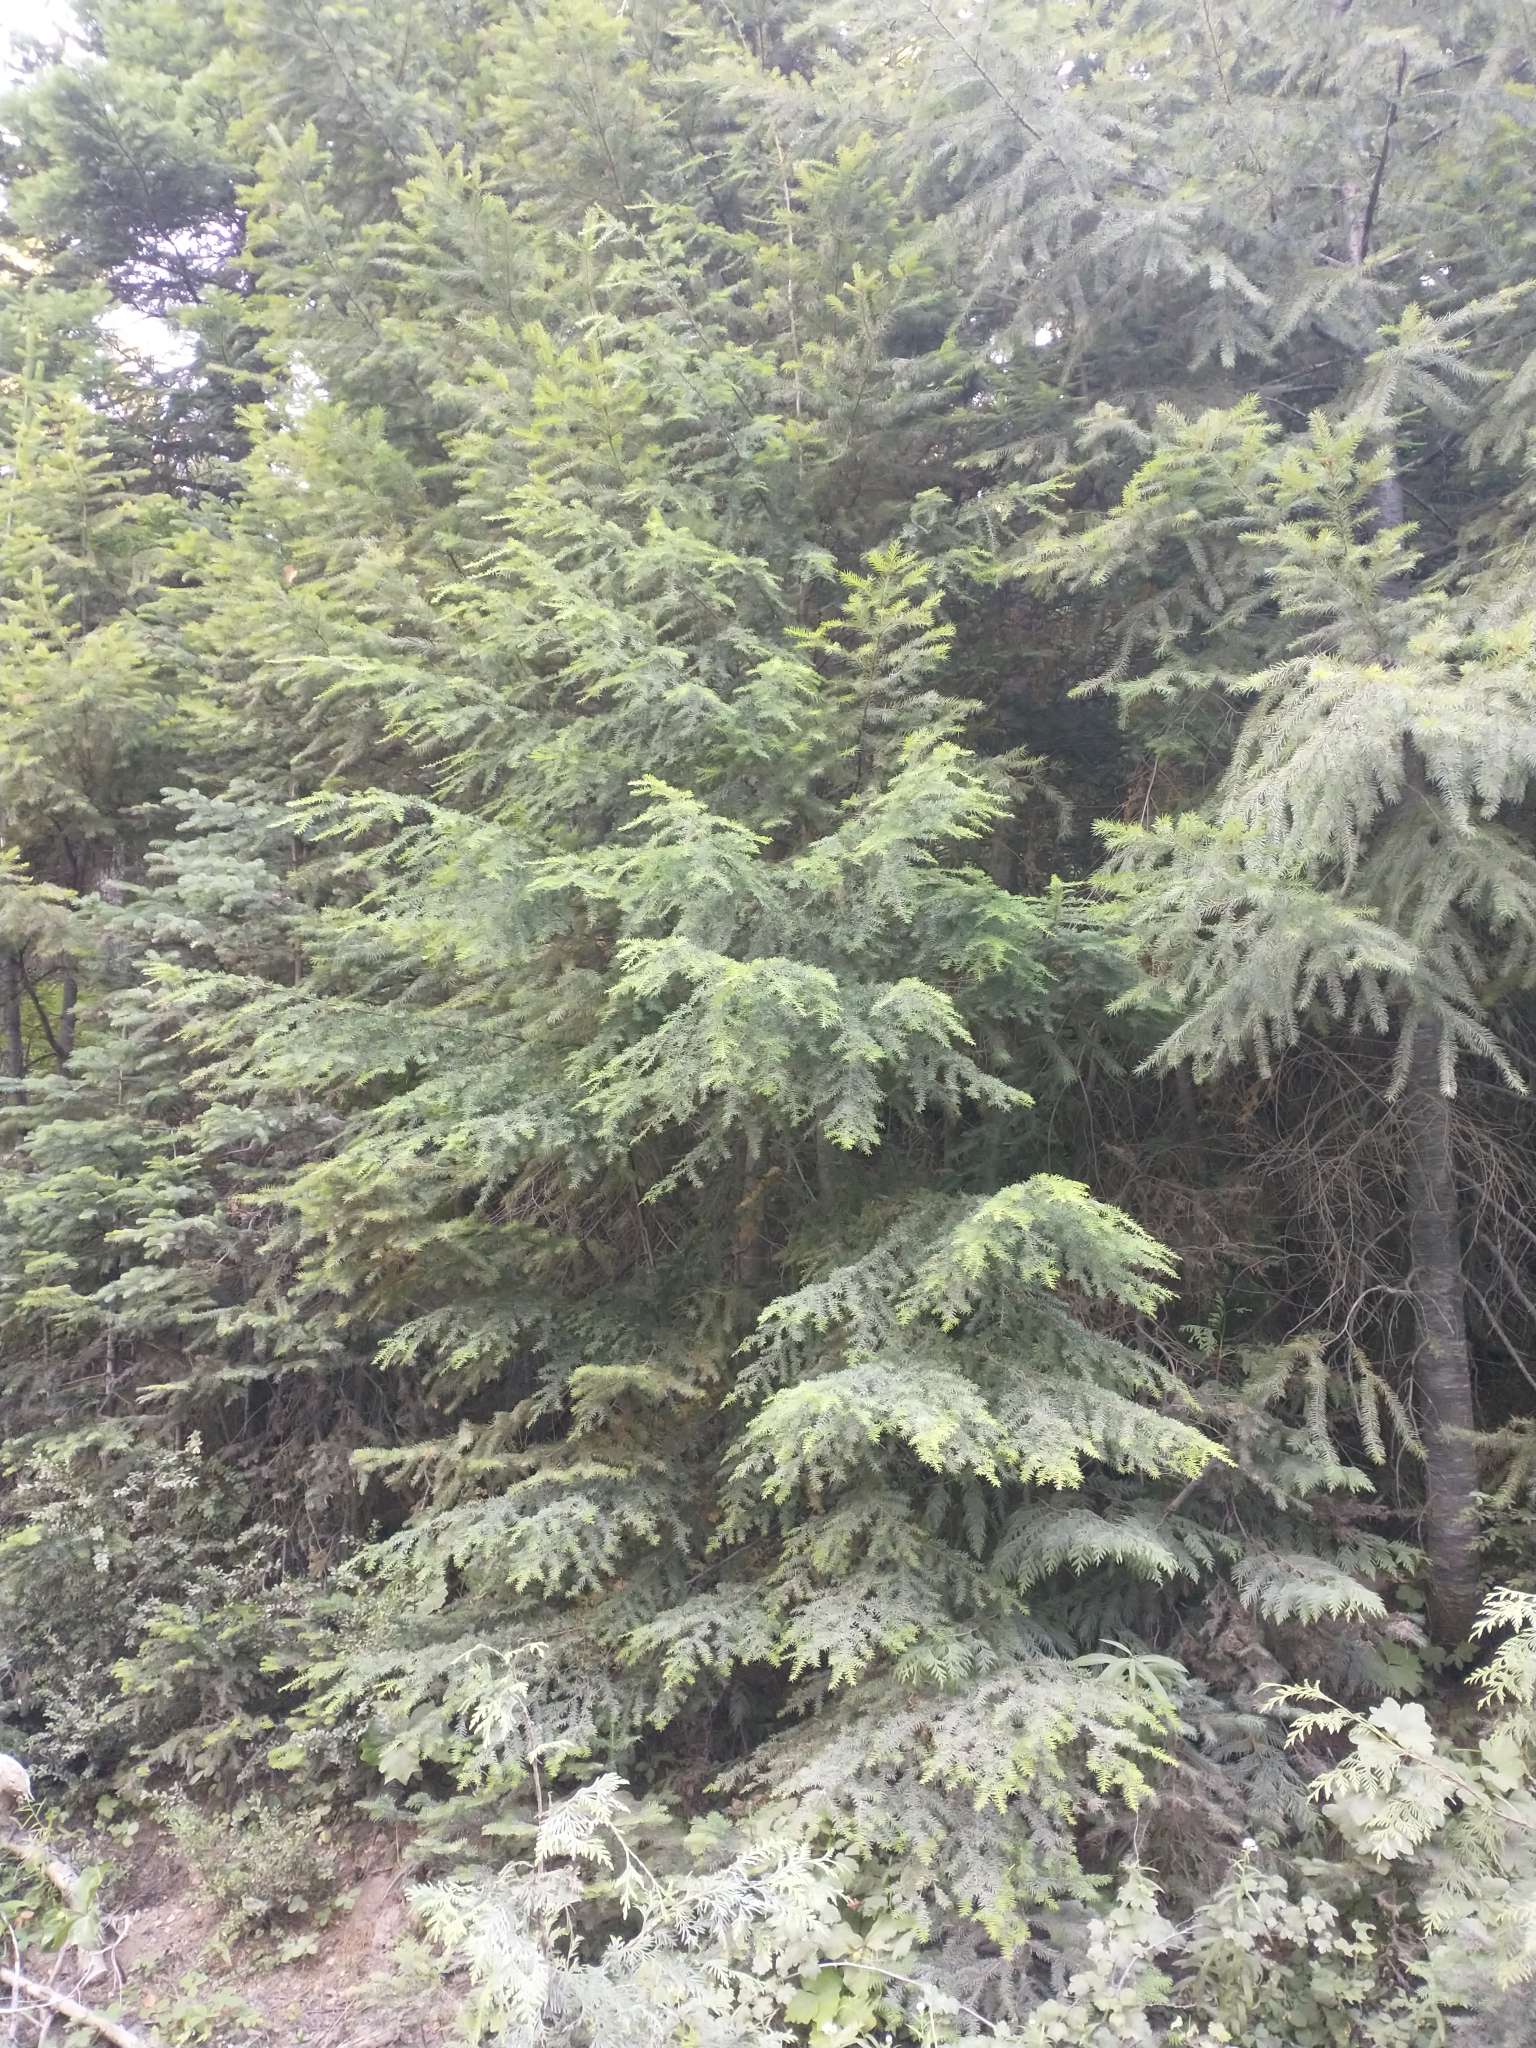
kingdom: Plantae
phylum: Tracheophyta
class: Pinopsida
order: Pinales
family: Pinaceae
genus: Tsuga
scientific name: Tsuga heterophylla
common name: Western hemlock
